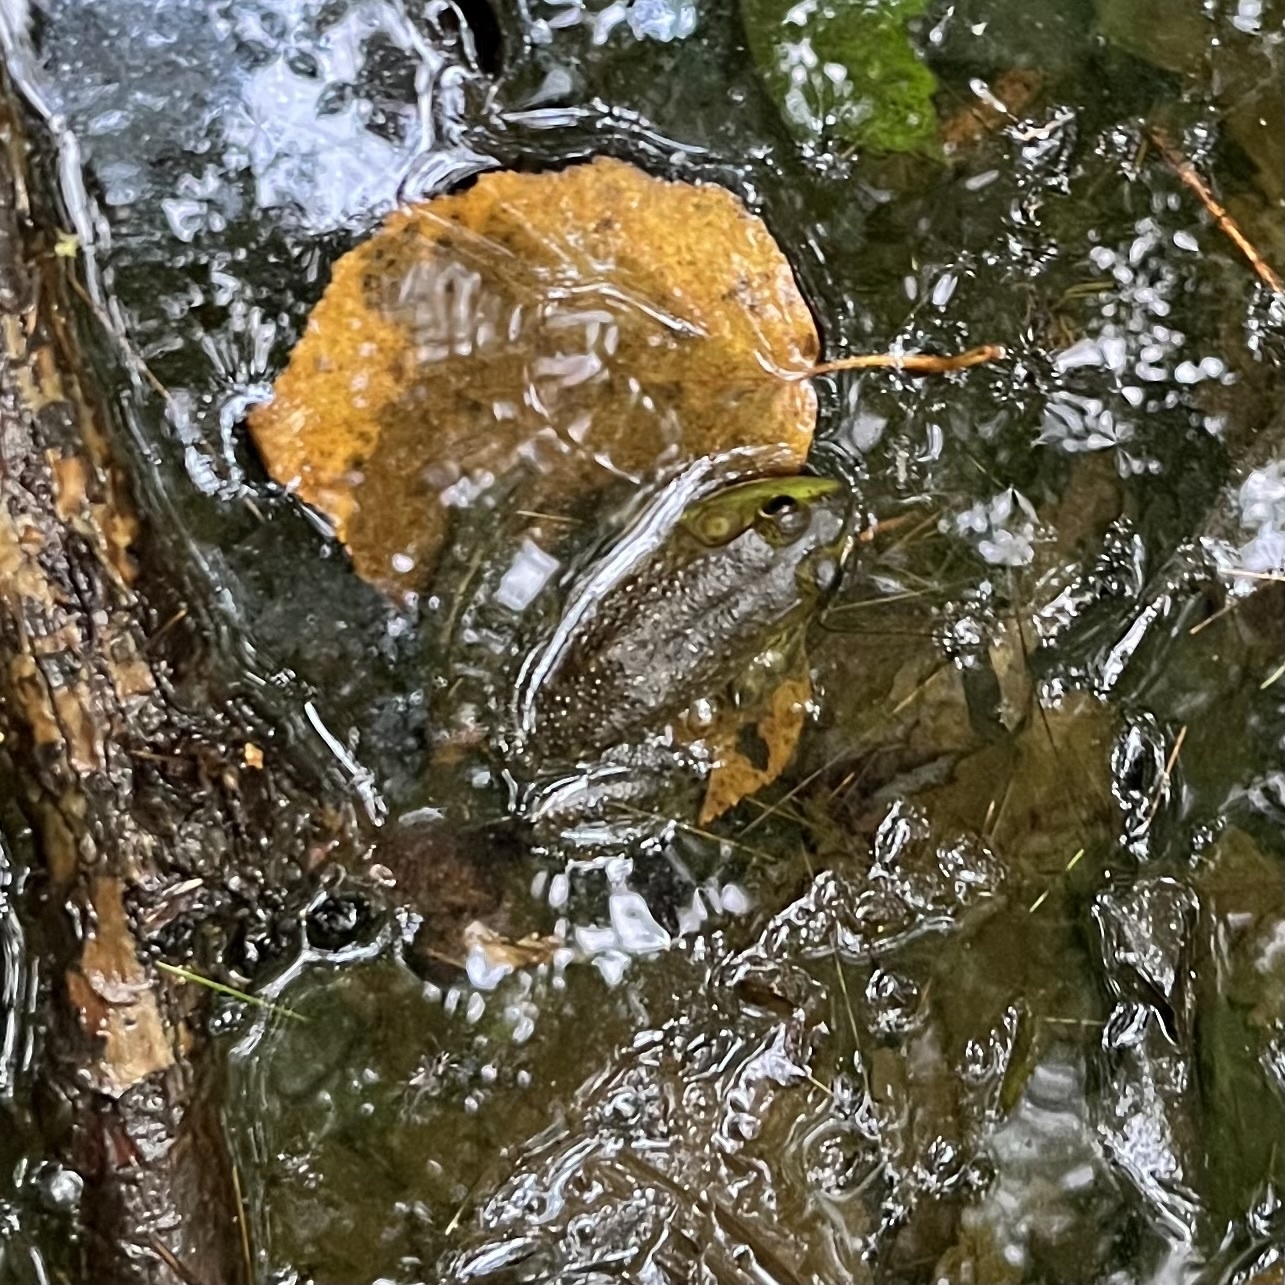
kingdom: Animalia
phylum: Chordata
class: Amphibia
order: Anura
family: Ranidae
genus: Lithobates
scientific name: Lithobates catesbeianus
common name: American bullfrog
